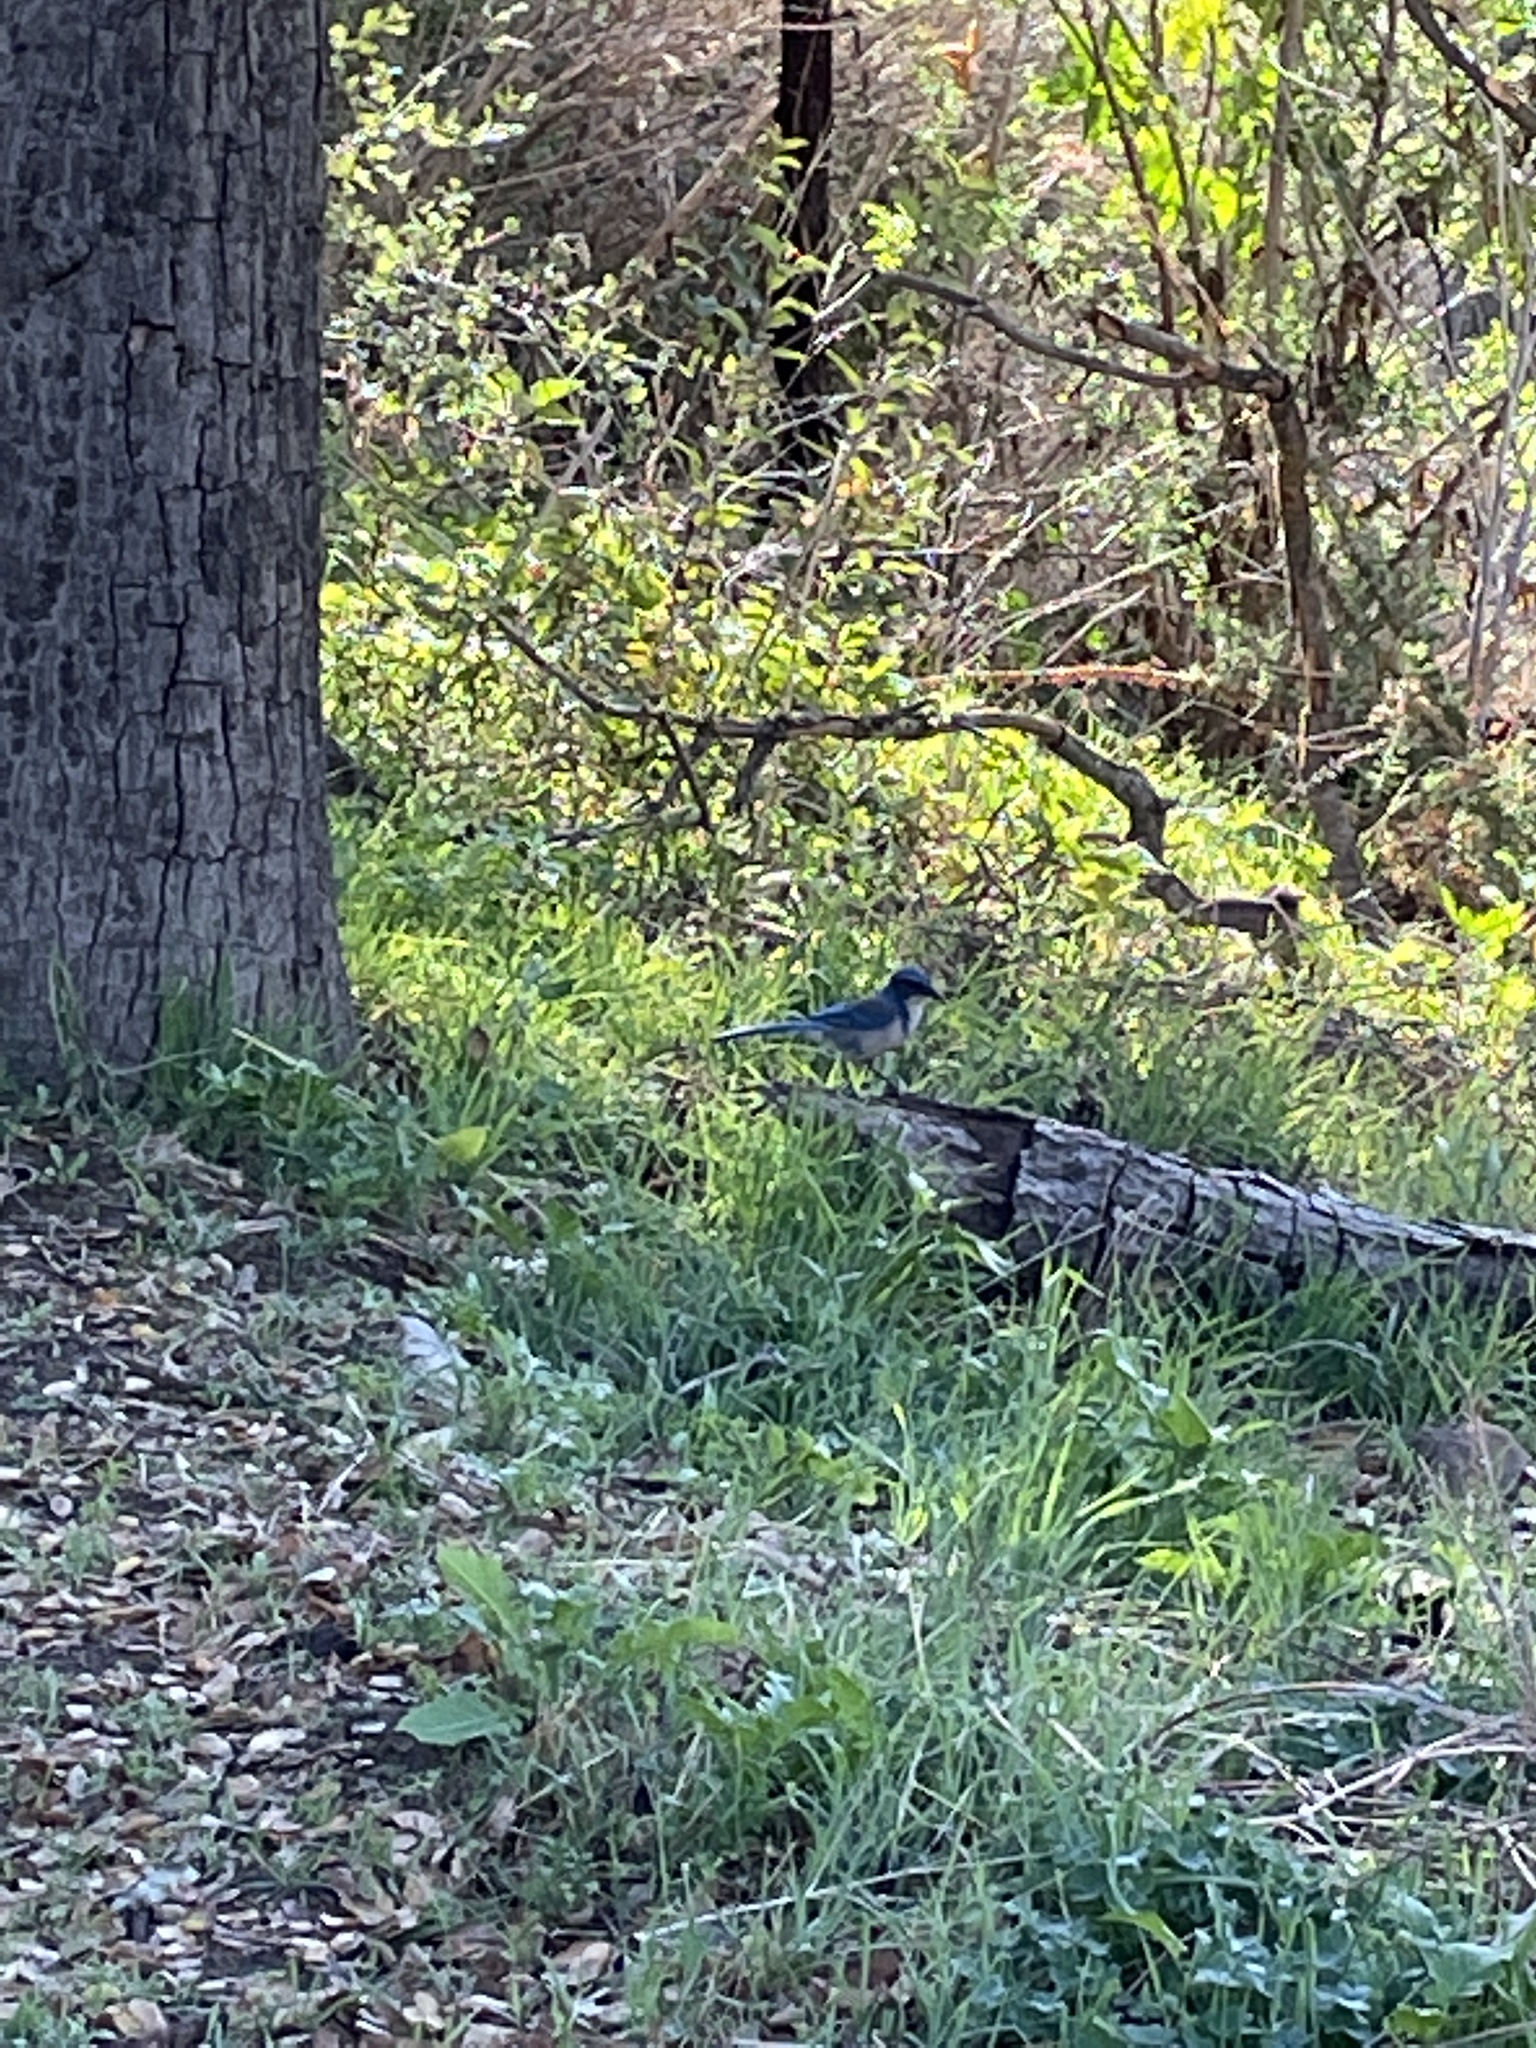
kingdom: Animalia
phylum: Chordata
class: Aves
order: Passeriformes
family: Corvidae
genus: Aphelocoma
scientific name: Aphelocoma californica
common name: California scrub-jay
